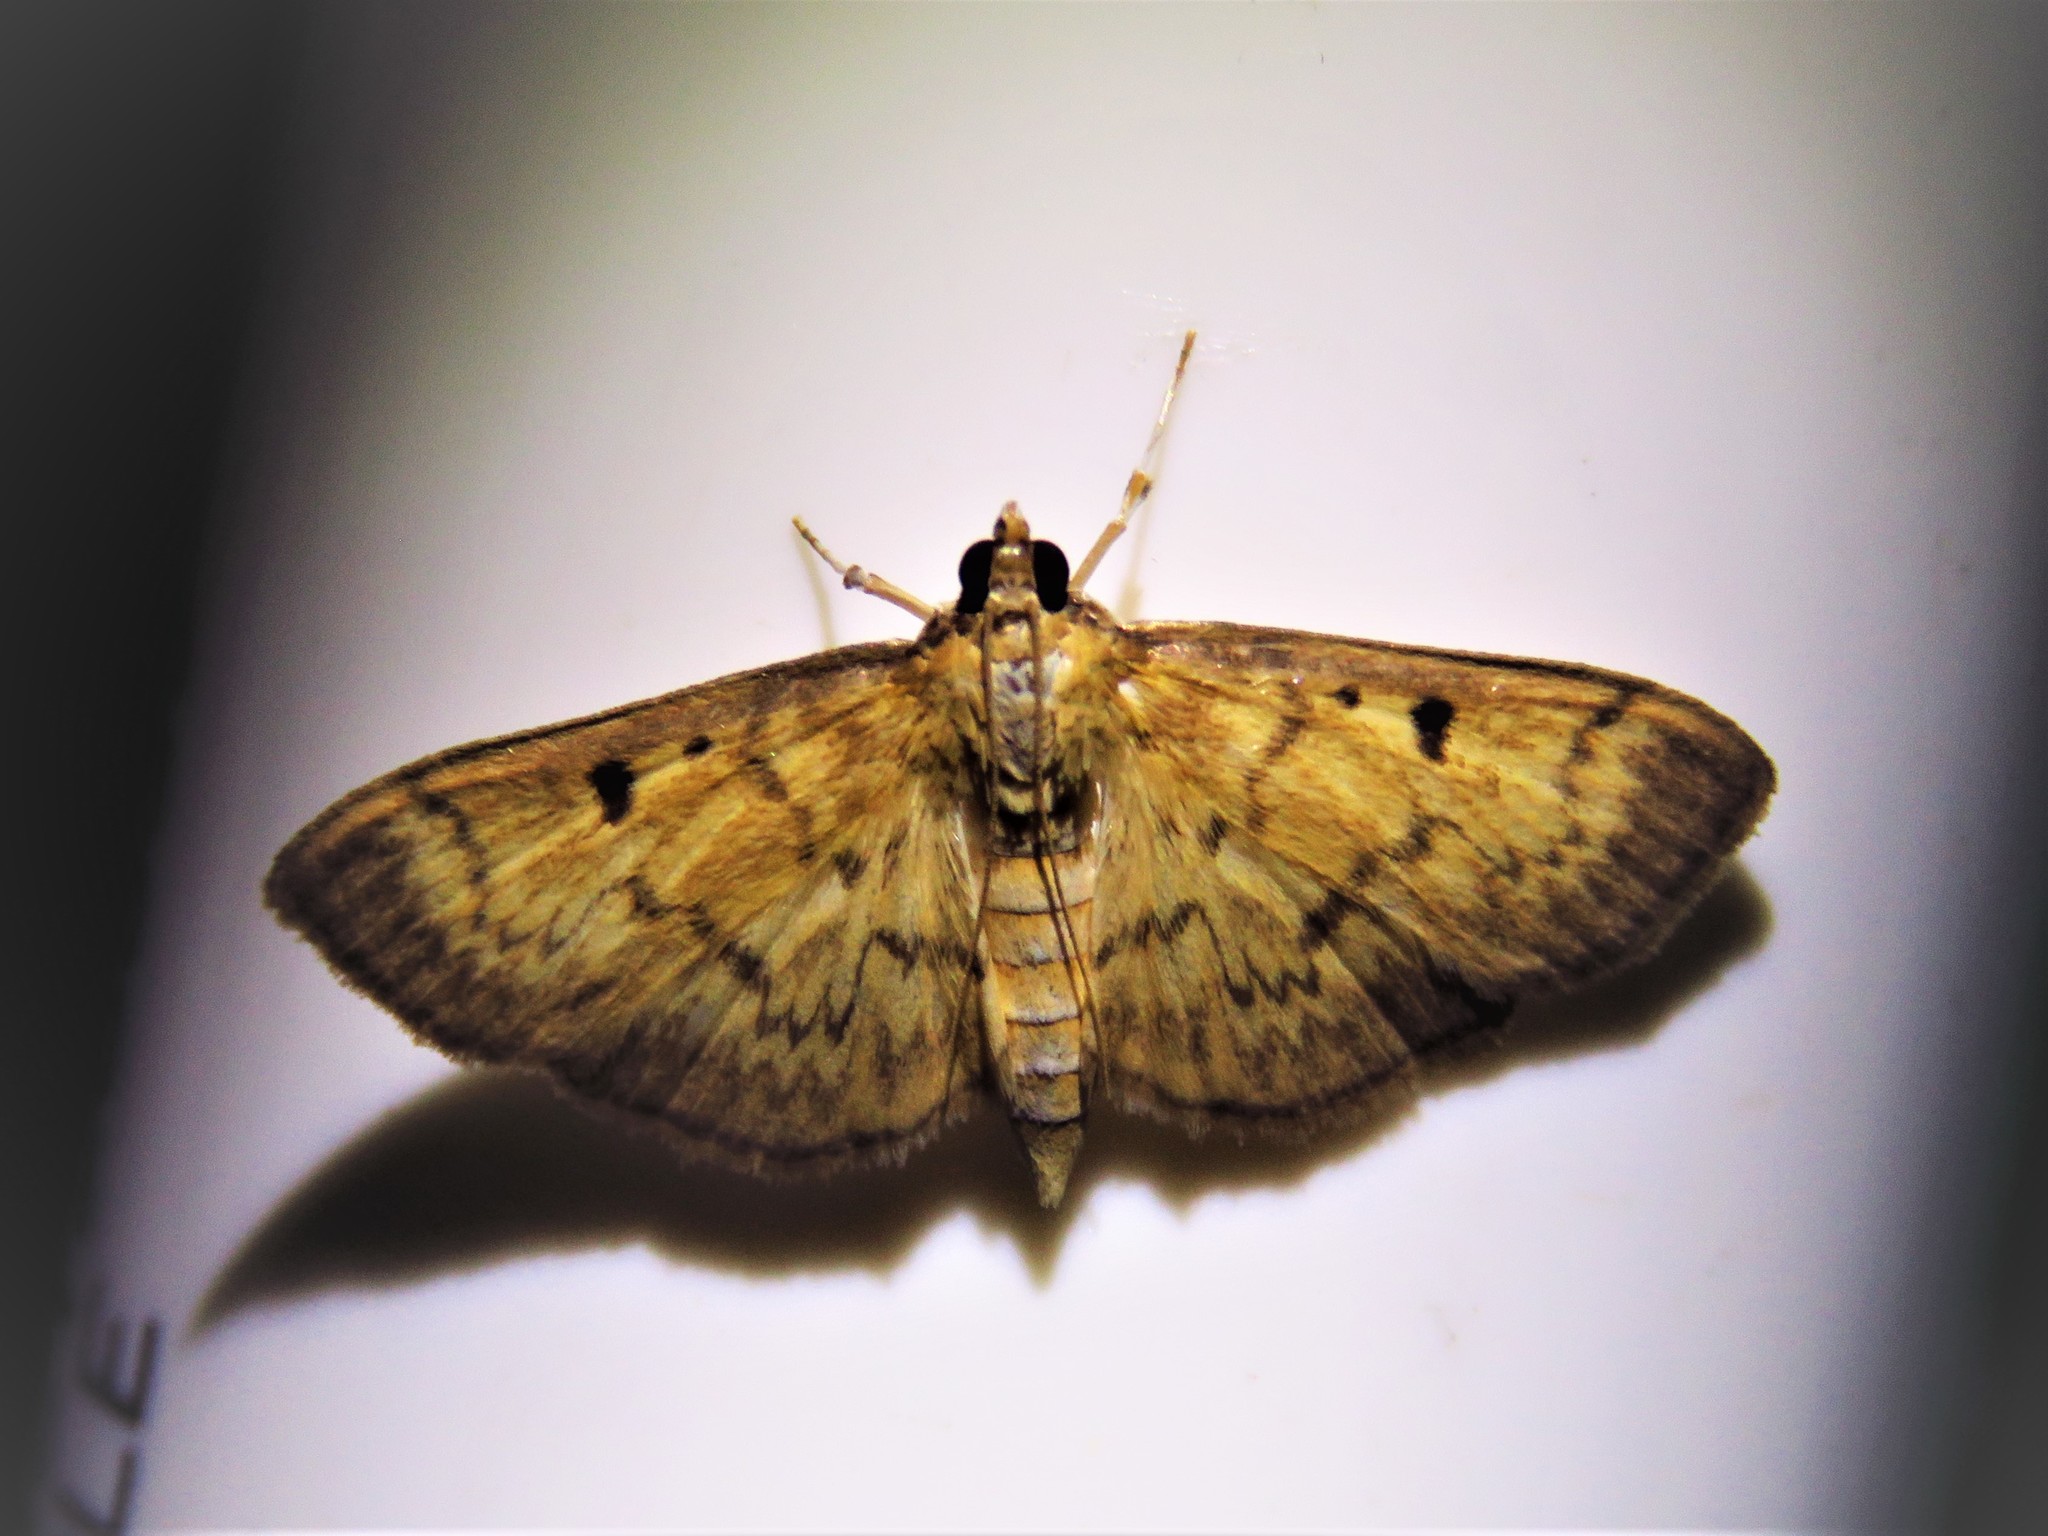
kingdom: Animalia
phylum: Arthropoda
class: Insecta
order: Lepidoptera
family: Crambidae
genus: Herpetogramma
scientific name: Herpetogramma fluctuosalis
